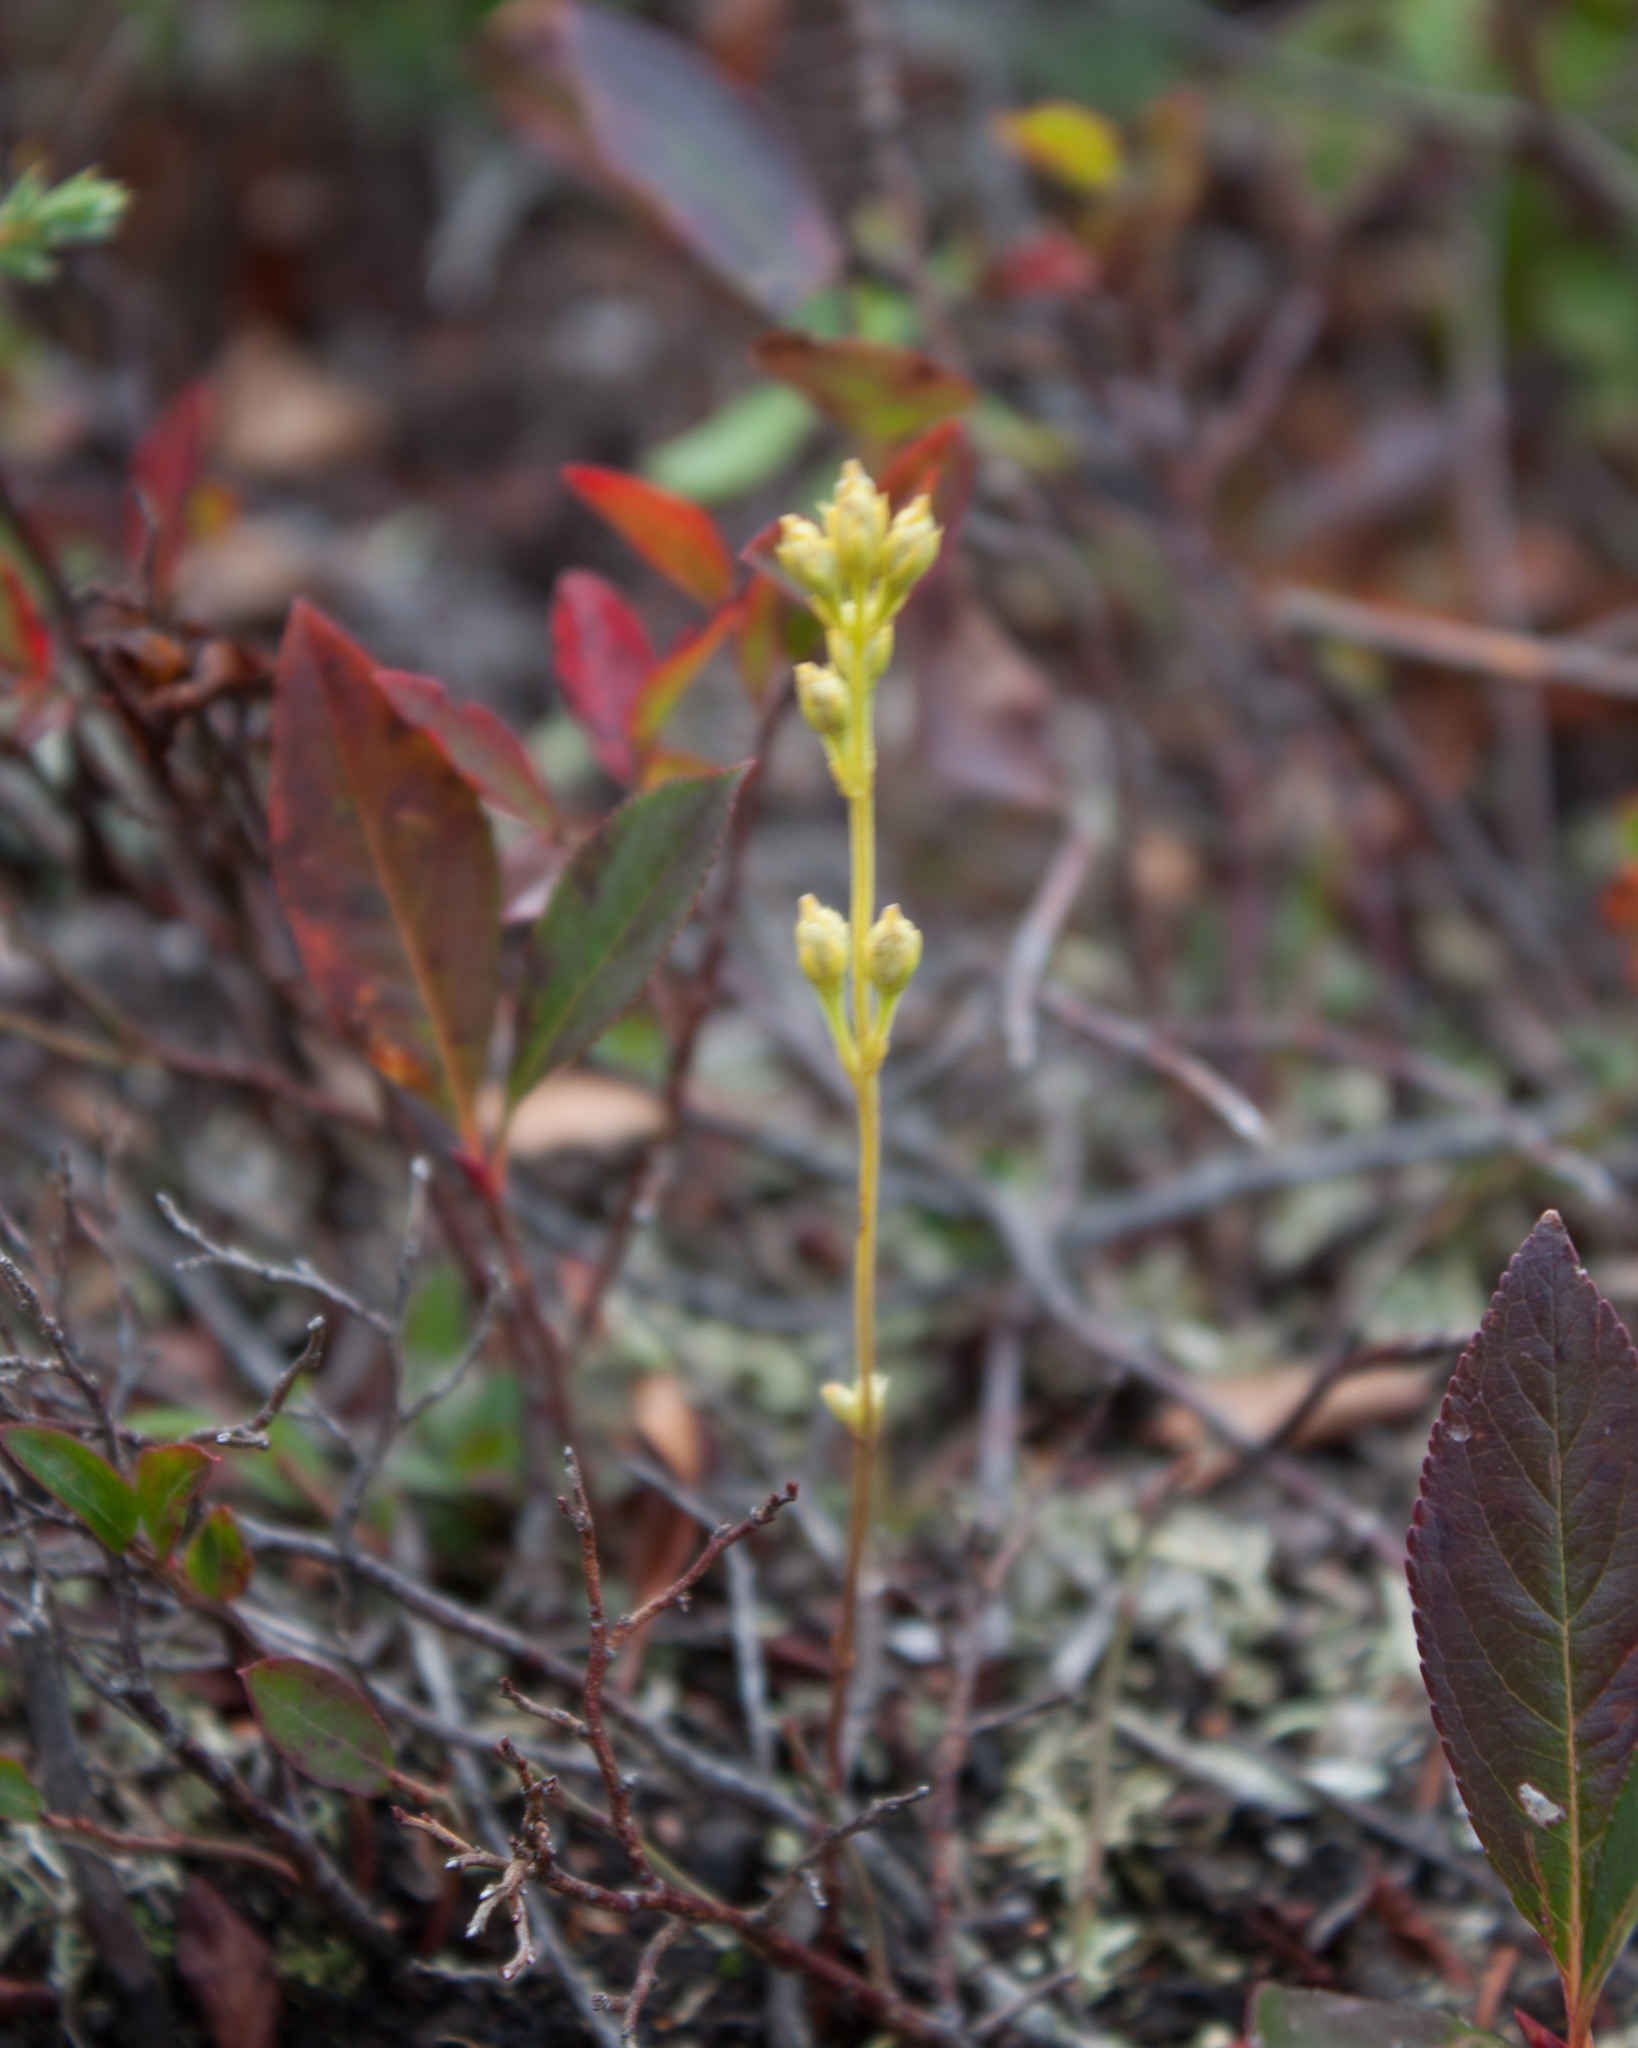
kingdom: Plantae
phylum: Tracheophyta
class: Magnoliopsida
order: Gentianales
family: Gentianaceae
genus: Bartonia
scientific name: Bartonia virginica
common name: Yellow bartonia
